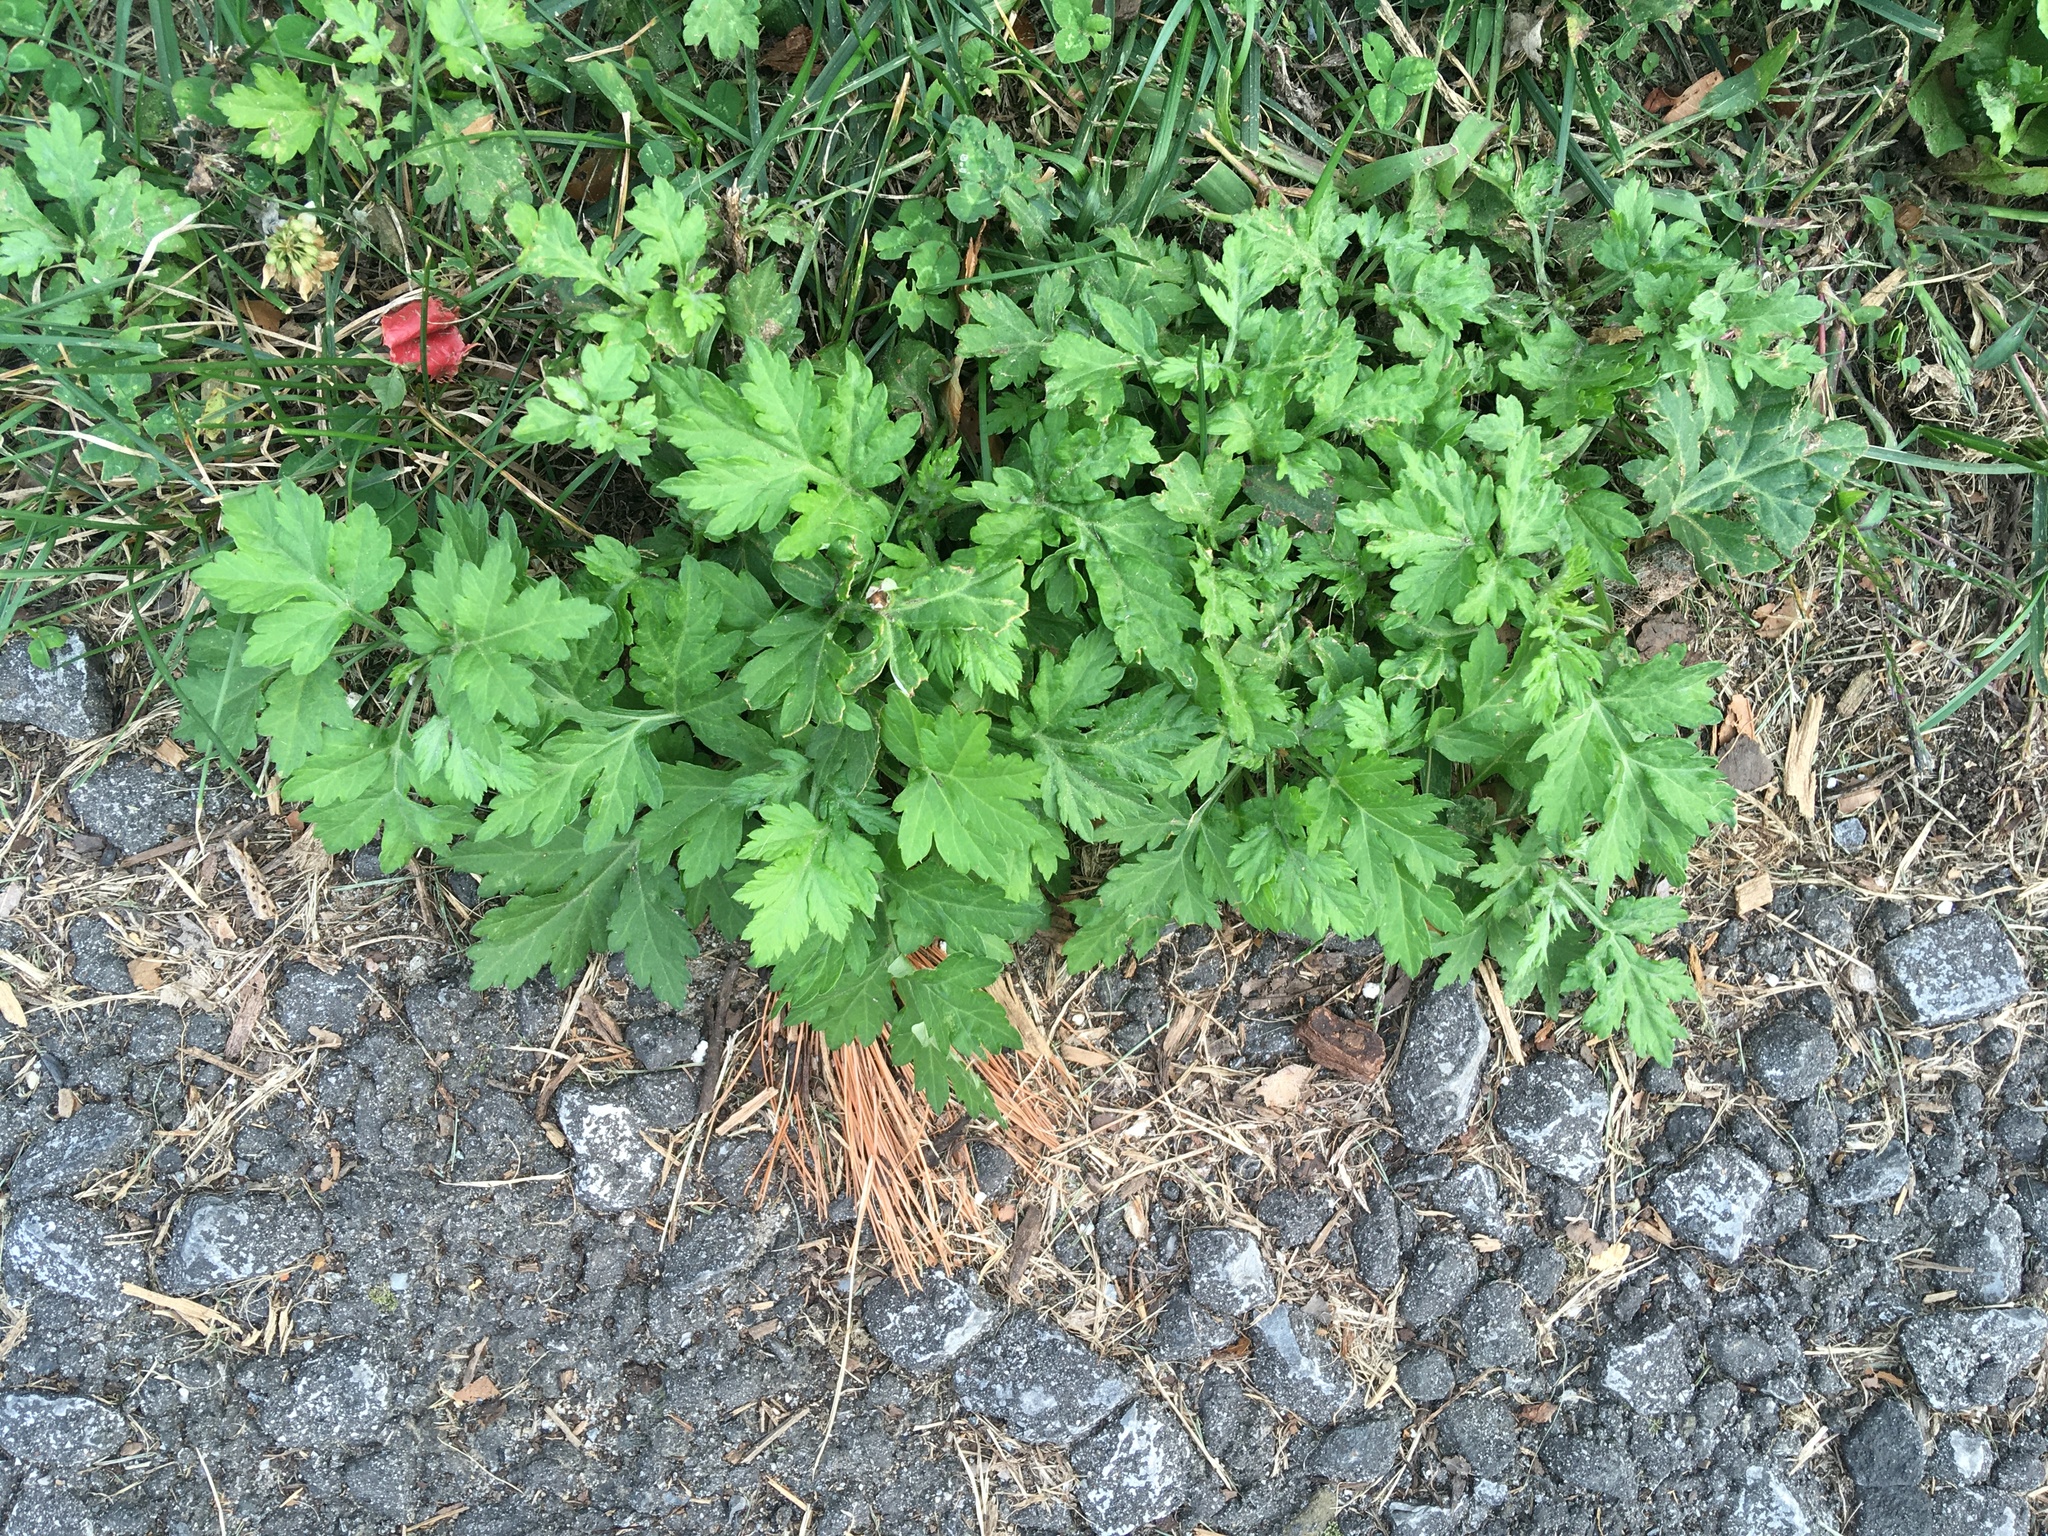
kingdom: Plantae
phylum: Tracheophyta
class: Magnoliopsida
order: Asterales
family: Asteraceae
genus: Artemisia
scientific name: Artemisia vulgaris
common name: Mugwort
